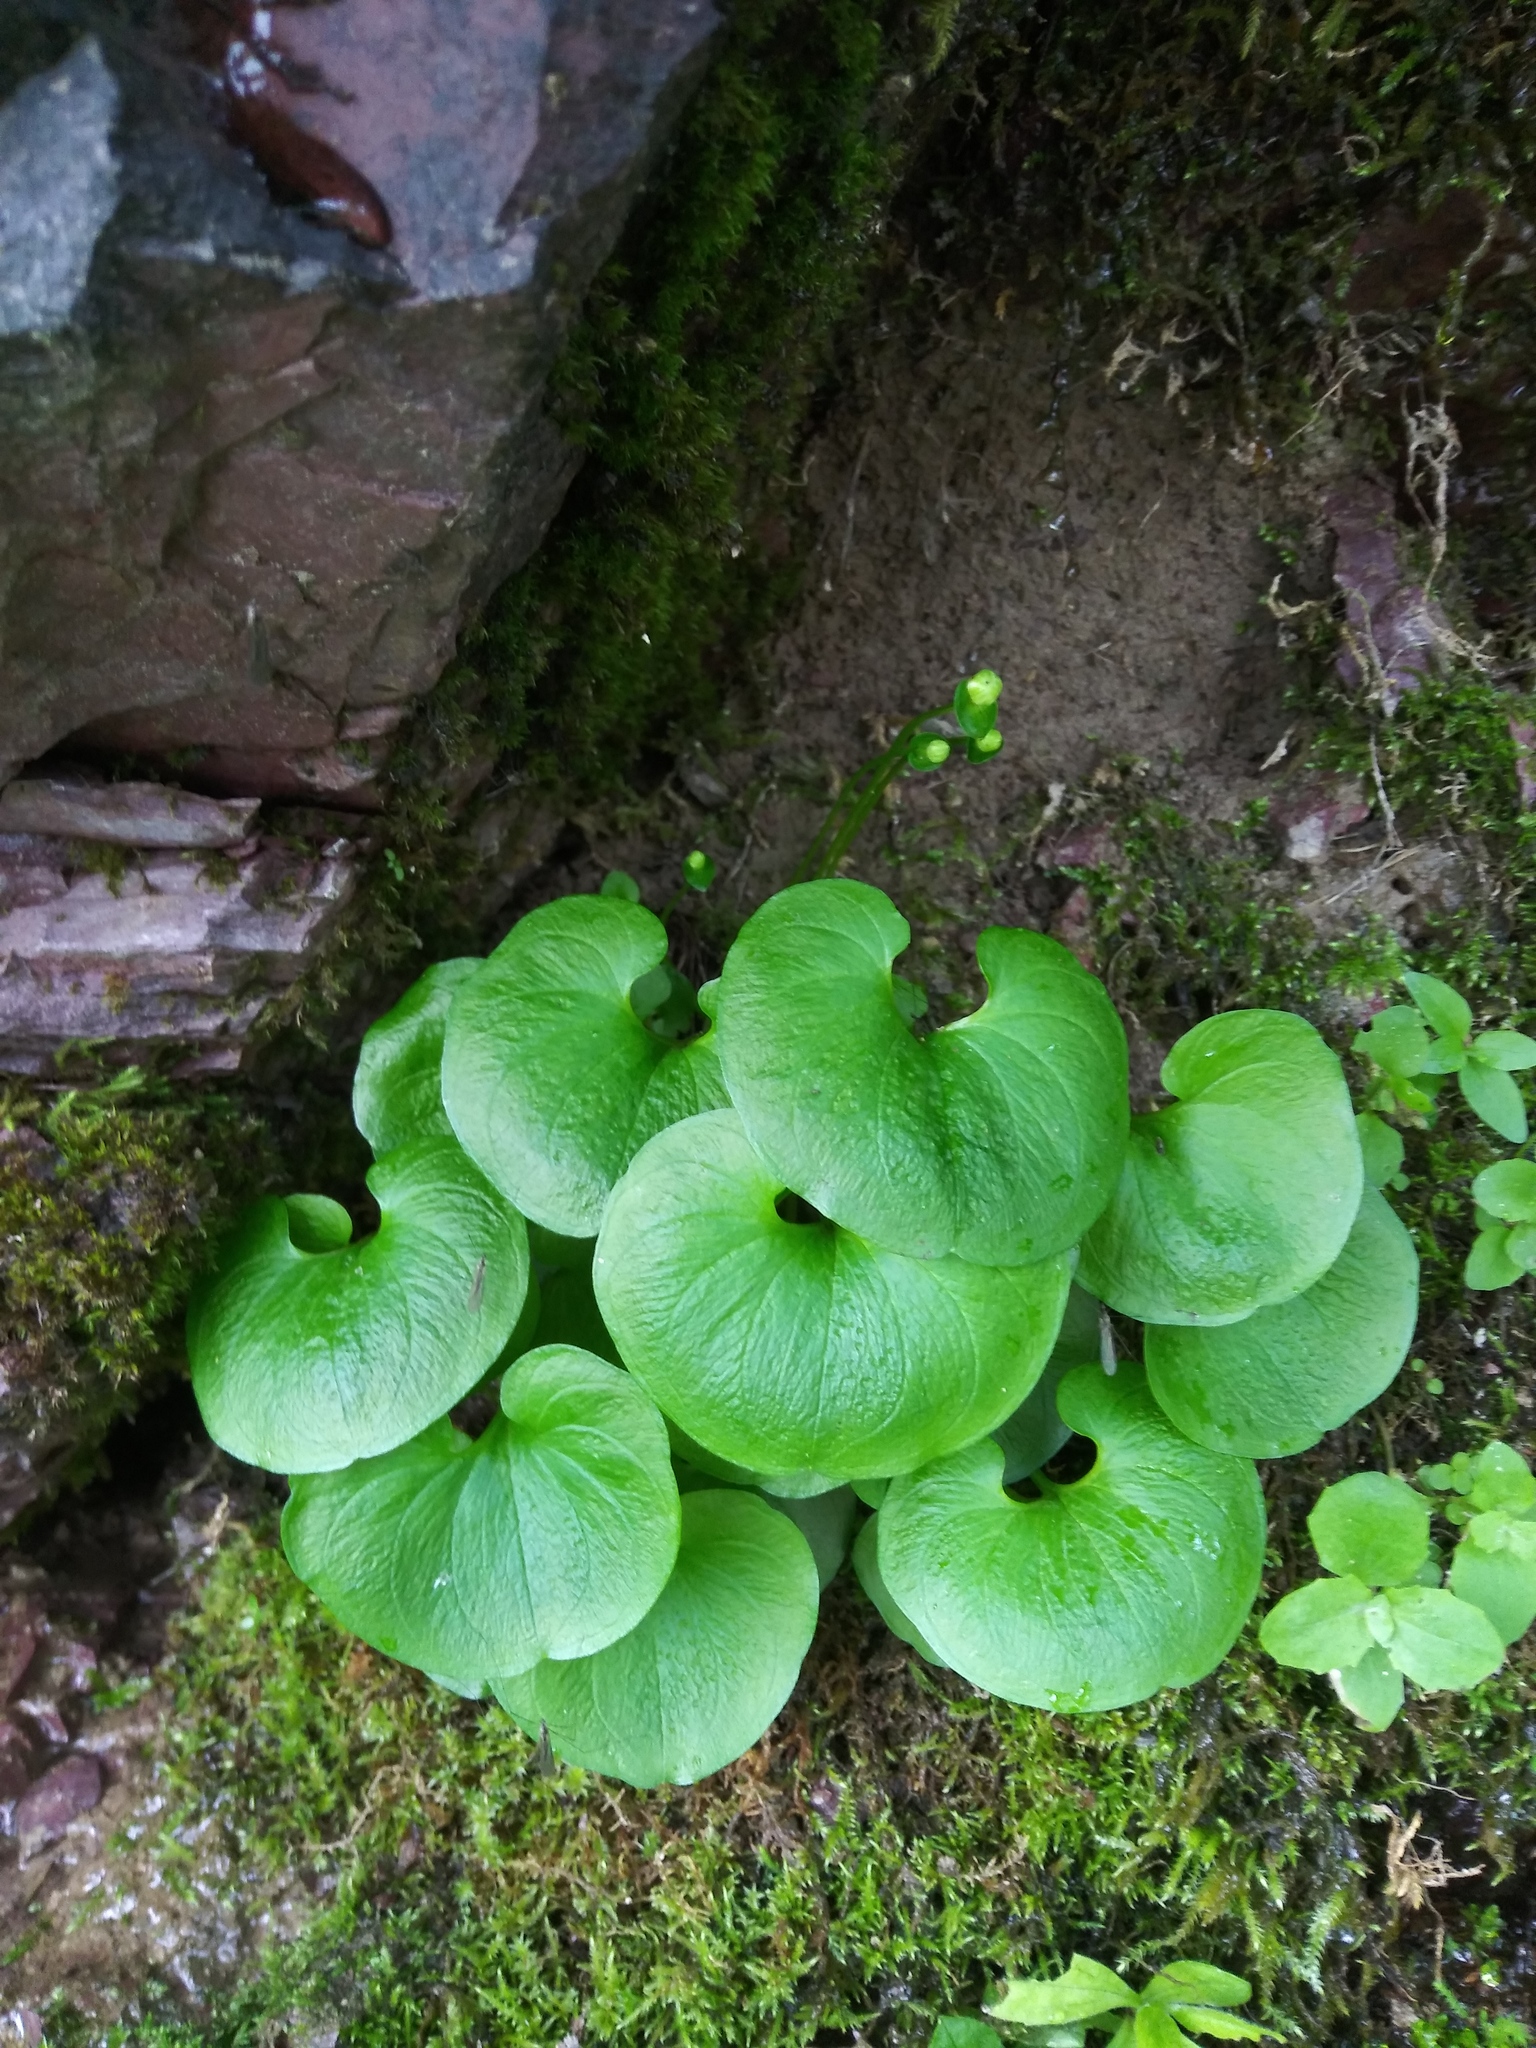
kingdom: Plantae
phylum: Tracheophyta
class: Magnoliopsida
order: Celastrales
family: Parnassiaceae
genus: Parnassia
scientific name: Parnassia fimbriata
